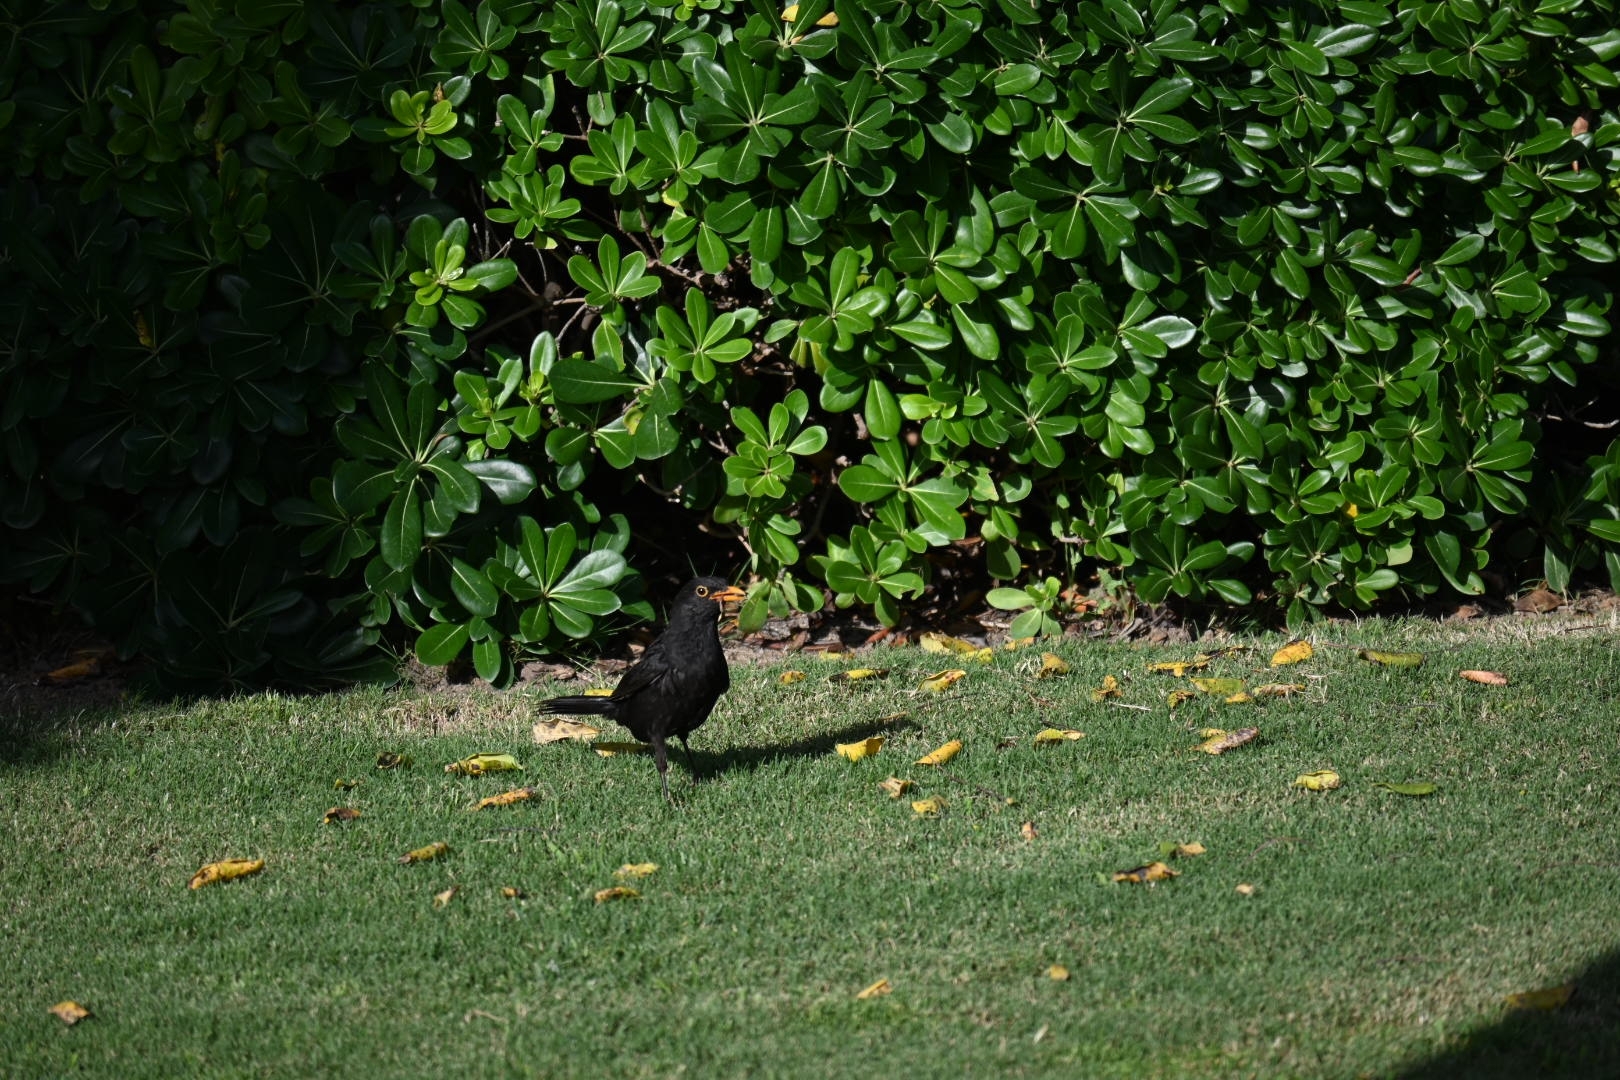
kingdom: Animalia
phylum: Chordata
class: Aves
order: Passeriformes
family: Turdidae
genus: Turdus
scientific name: Turdus merula
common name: Common blackbird
